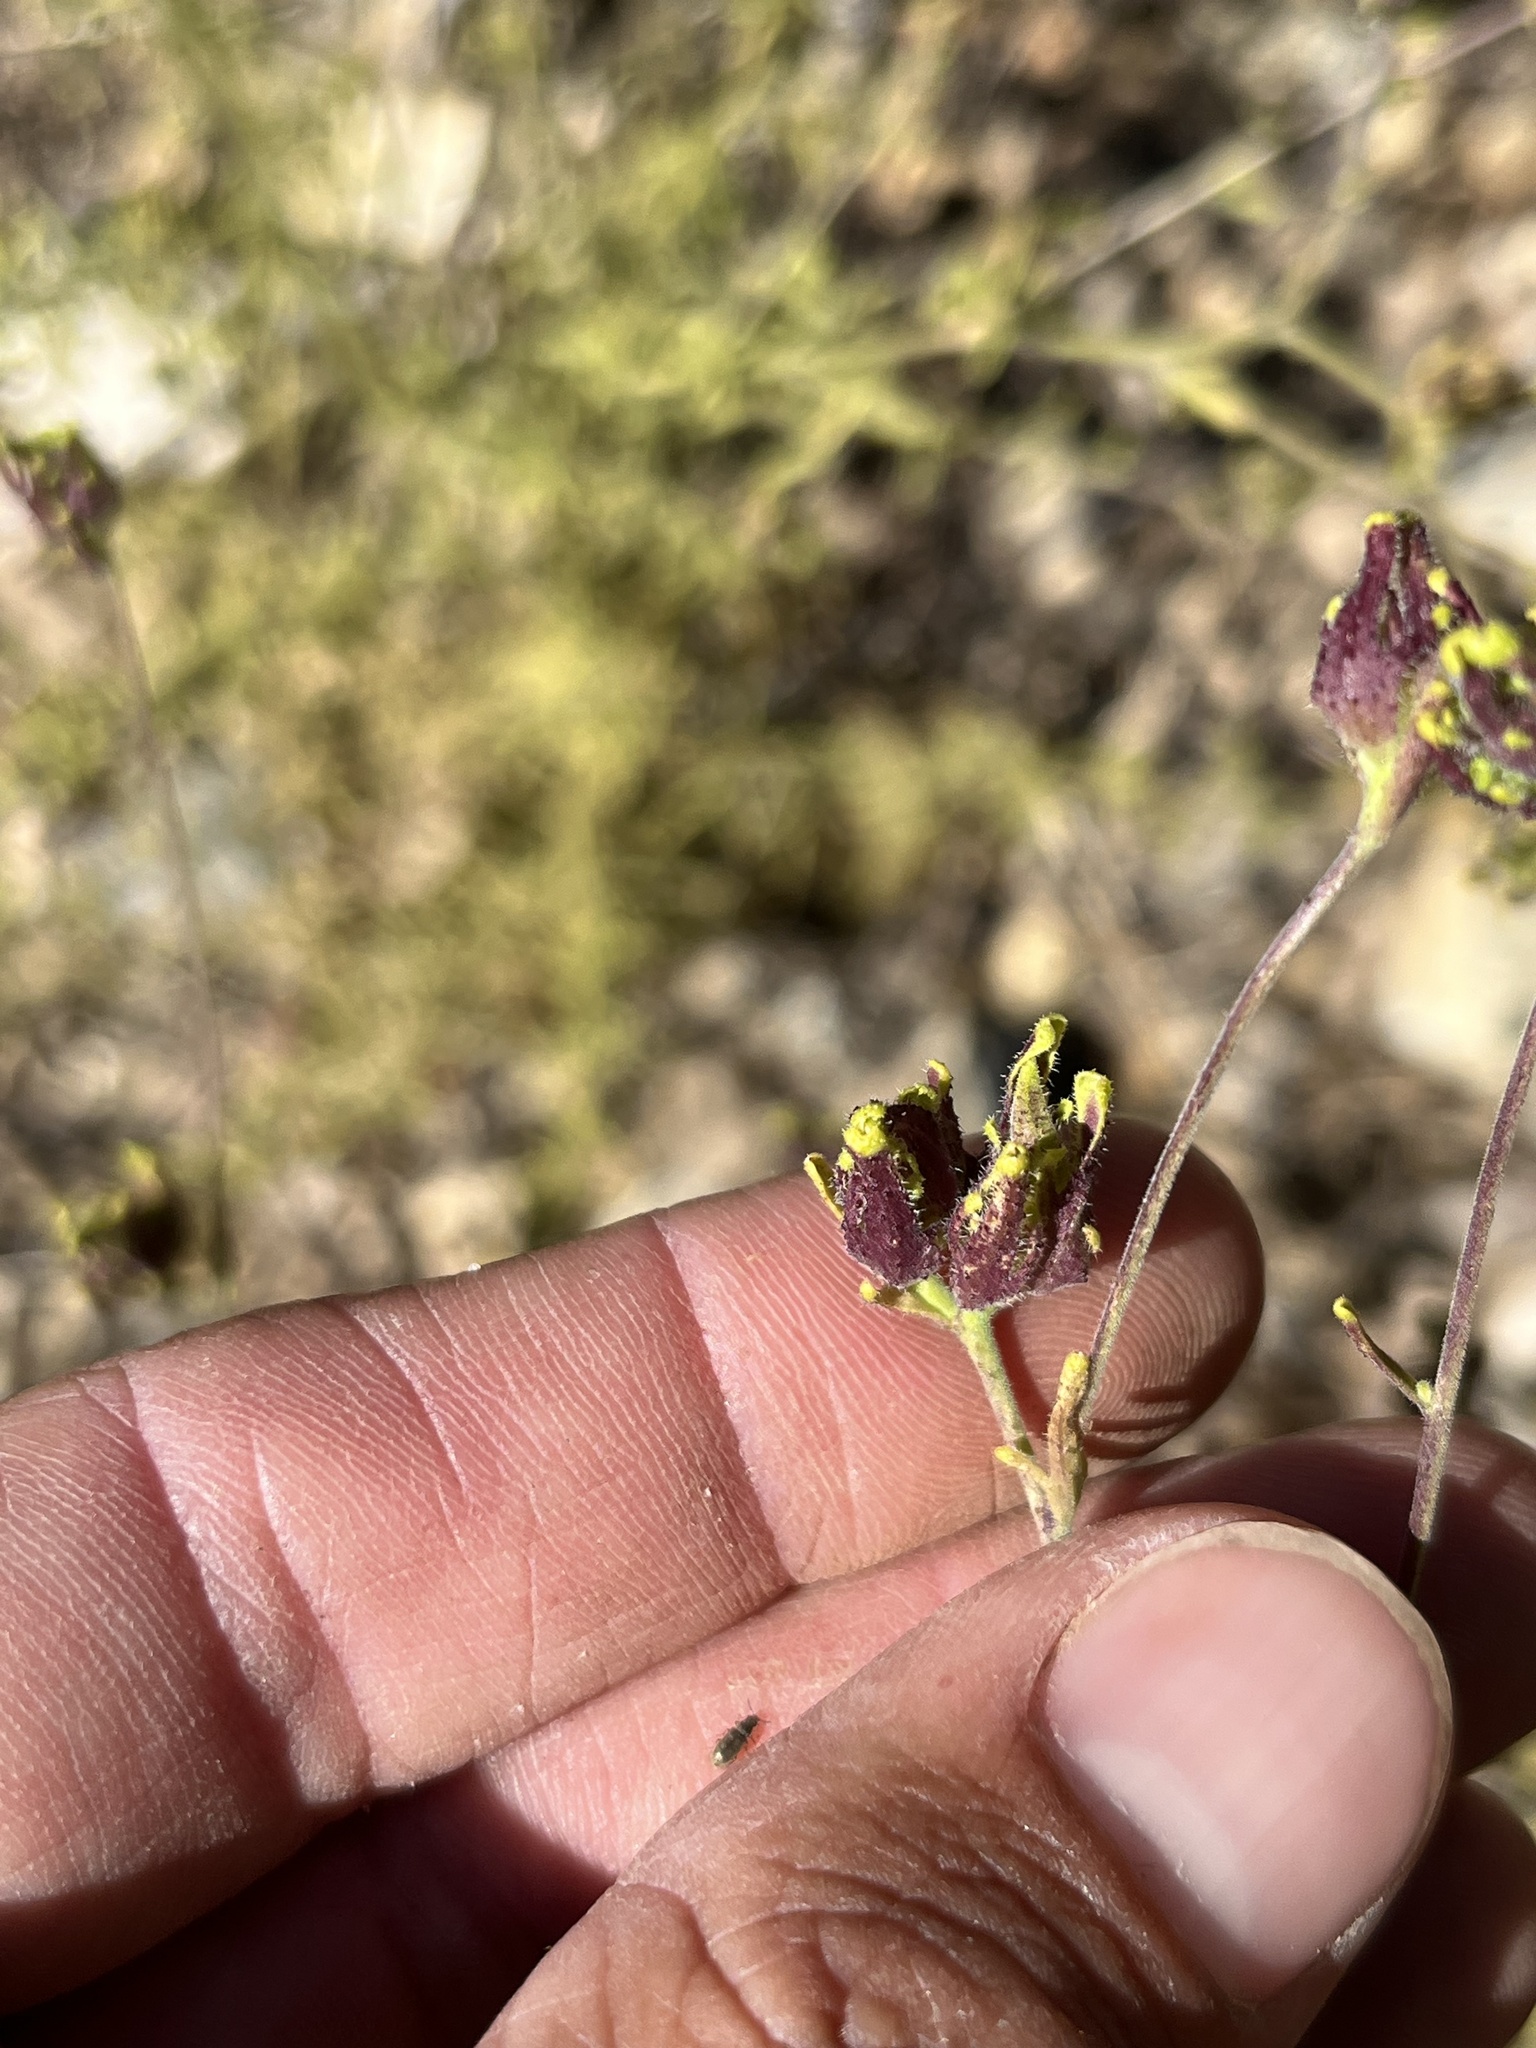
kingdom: Plantae
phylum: Tracheophyta
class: Magnoliopsida
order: Lamiales
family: Orobanchaceae
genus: Cordylanthus
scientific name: Cordylanthus rigidus
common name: Stiff-branch bird's-beak
